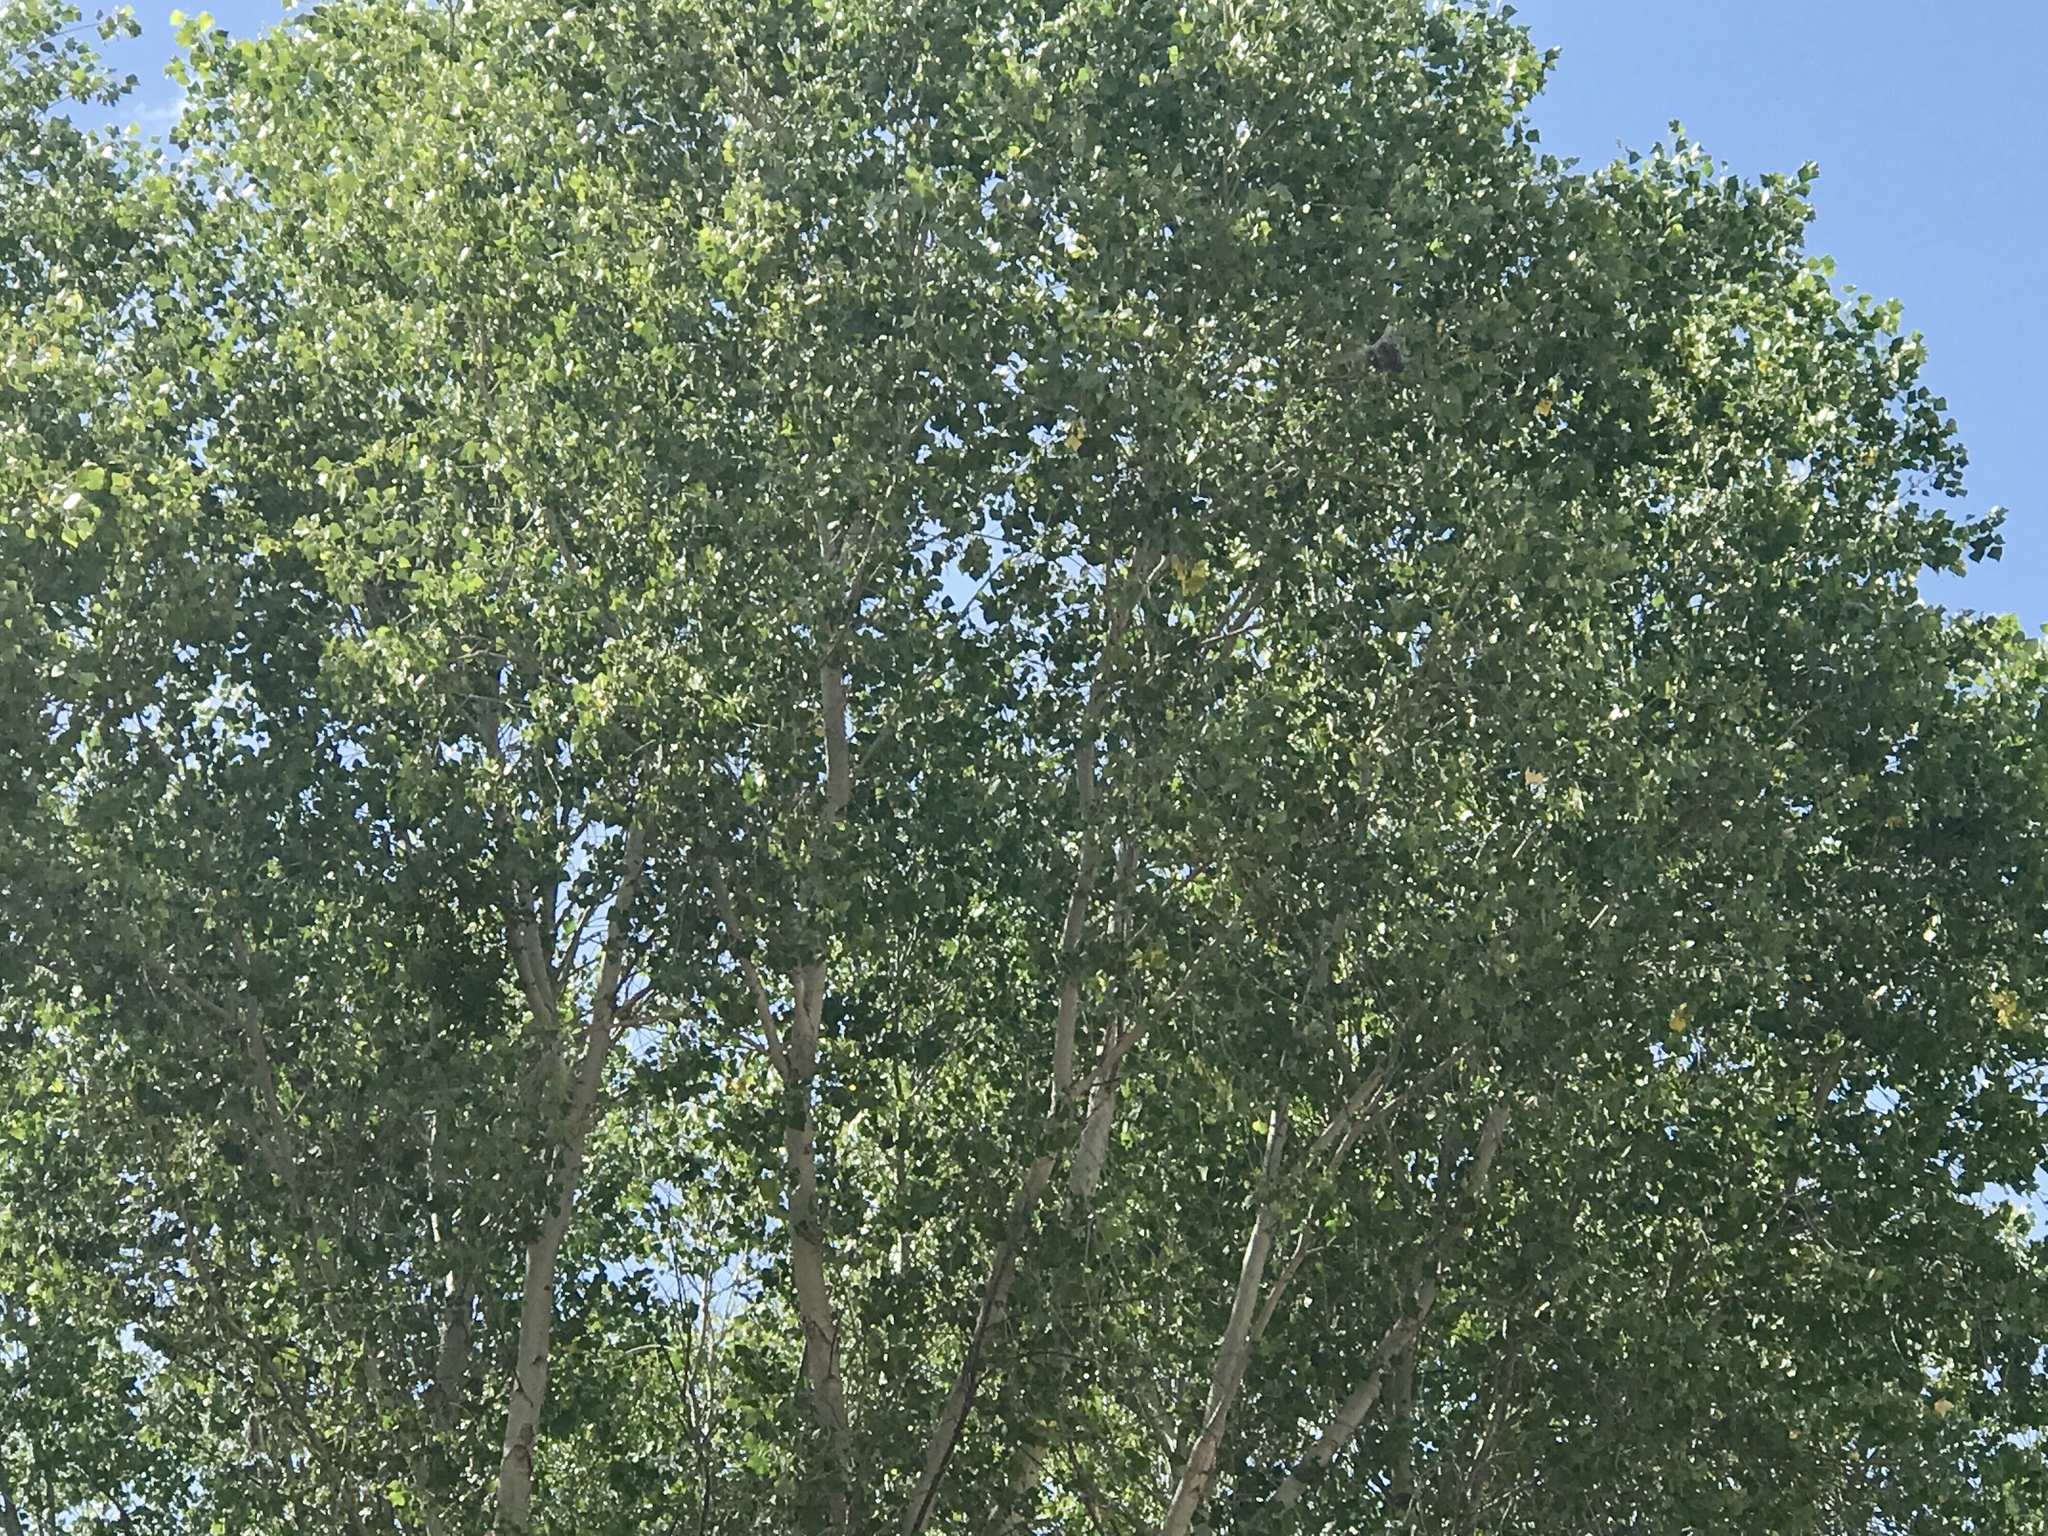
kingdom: Plantae
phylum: Tracheophyta
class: Magnoliopsida
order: Malpighiales
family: Salicaceae
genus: Populus
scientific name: Populus fremontii
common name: Fremont's cottonwood
